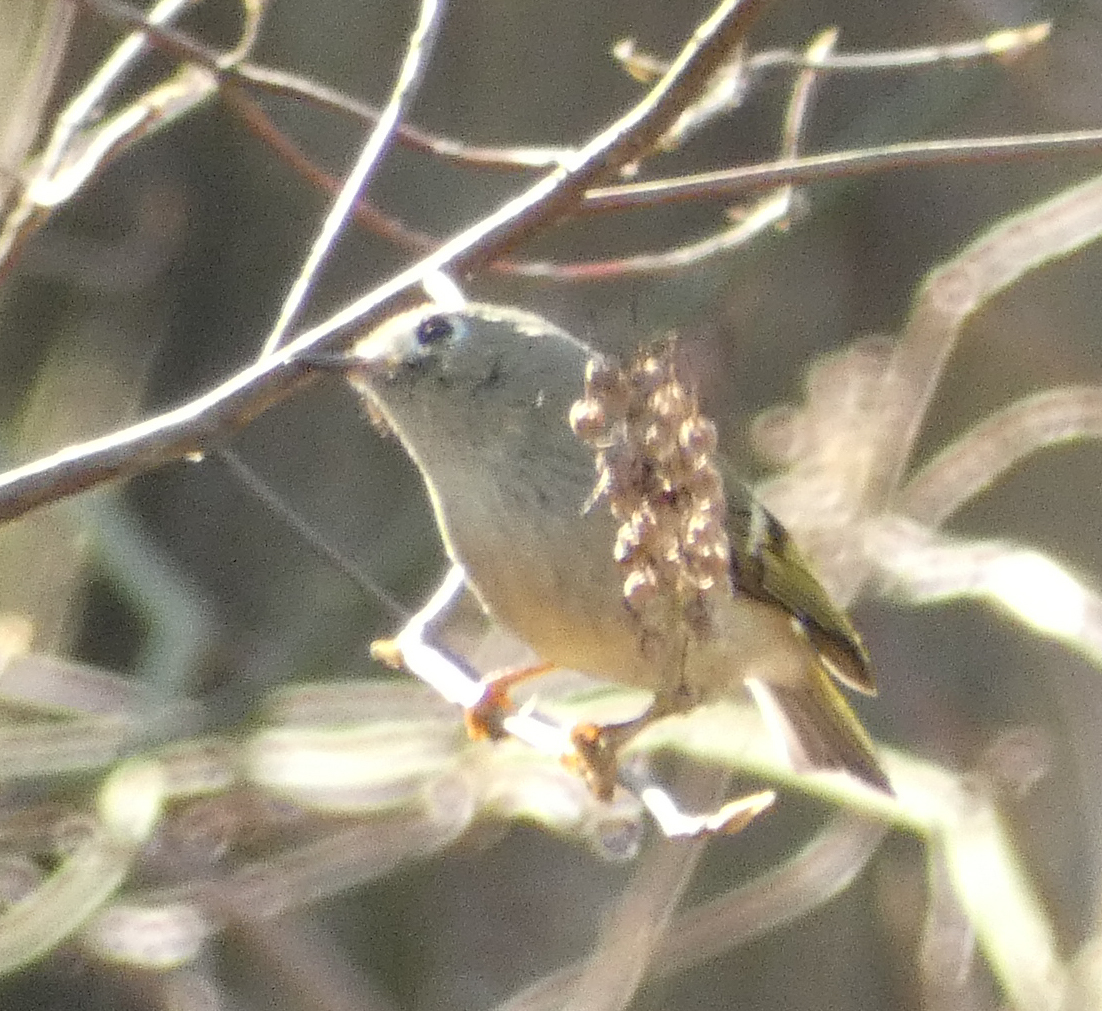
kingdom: Animalia
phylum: Chordata
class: Aves
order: Passeriformes
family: Regulidae
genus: Regulus
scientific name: Regulus calendula
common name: Ruby-crowned kinglet
